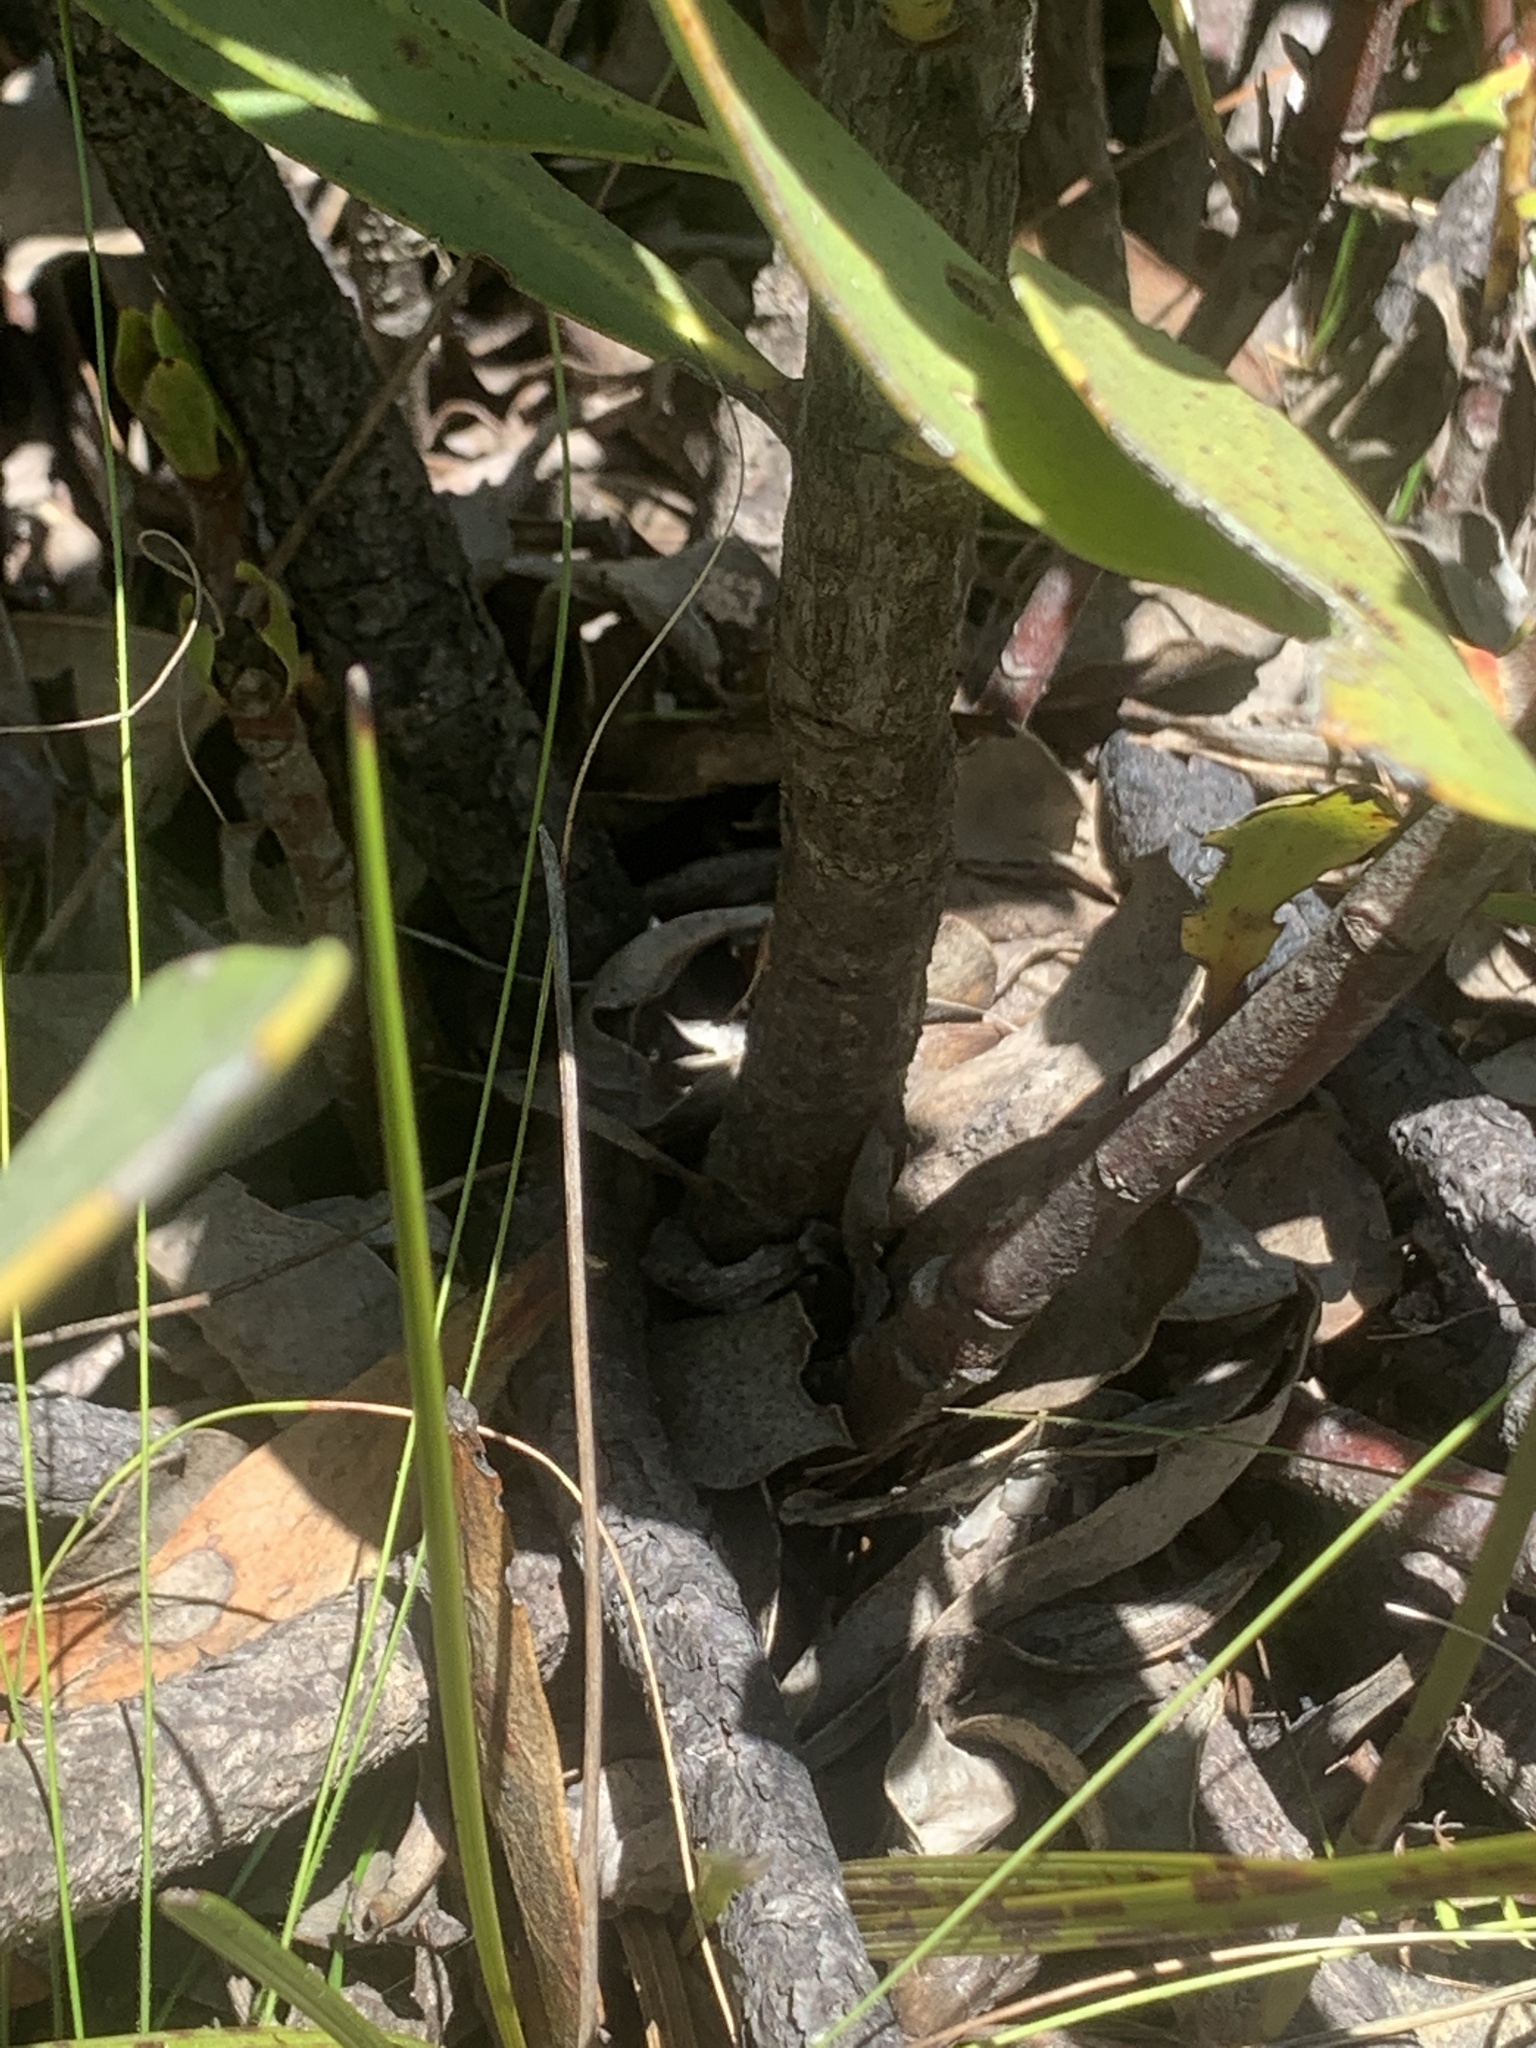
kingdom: Plantae
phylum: Tracheophyta
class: Magnoliopsida
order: Proteales
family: Proteaceae
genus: Protea
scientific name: Protea speciosa
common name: Brown-beard sugarbush
